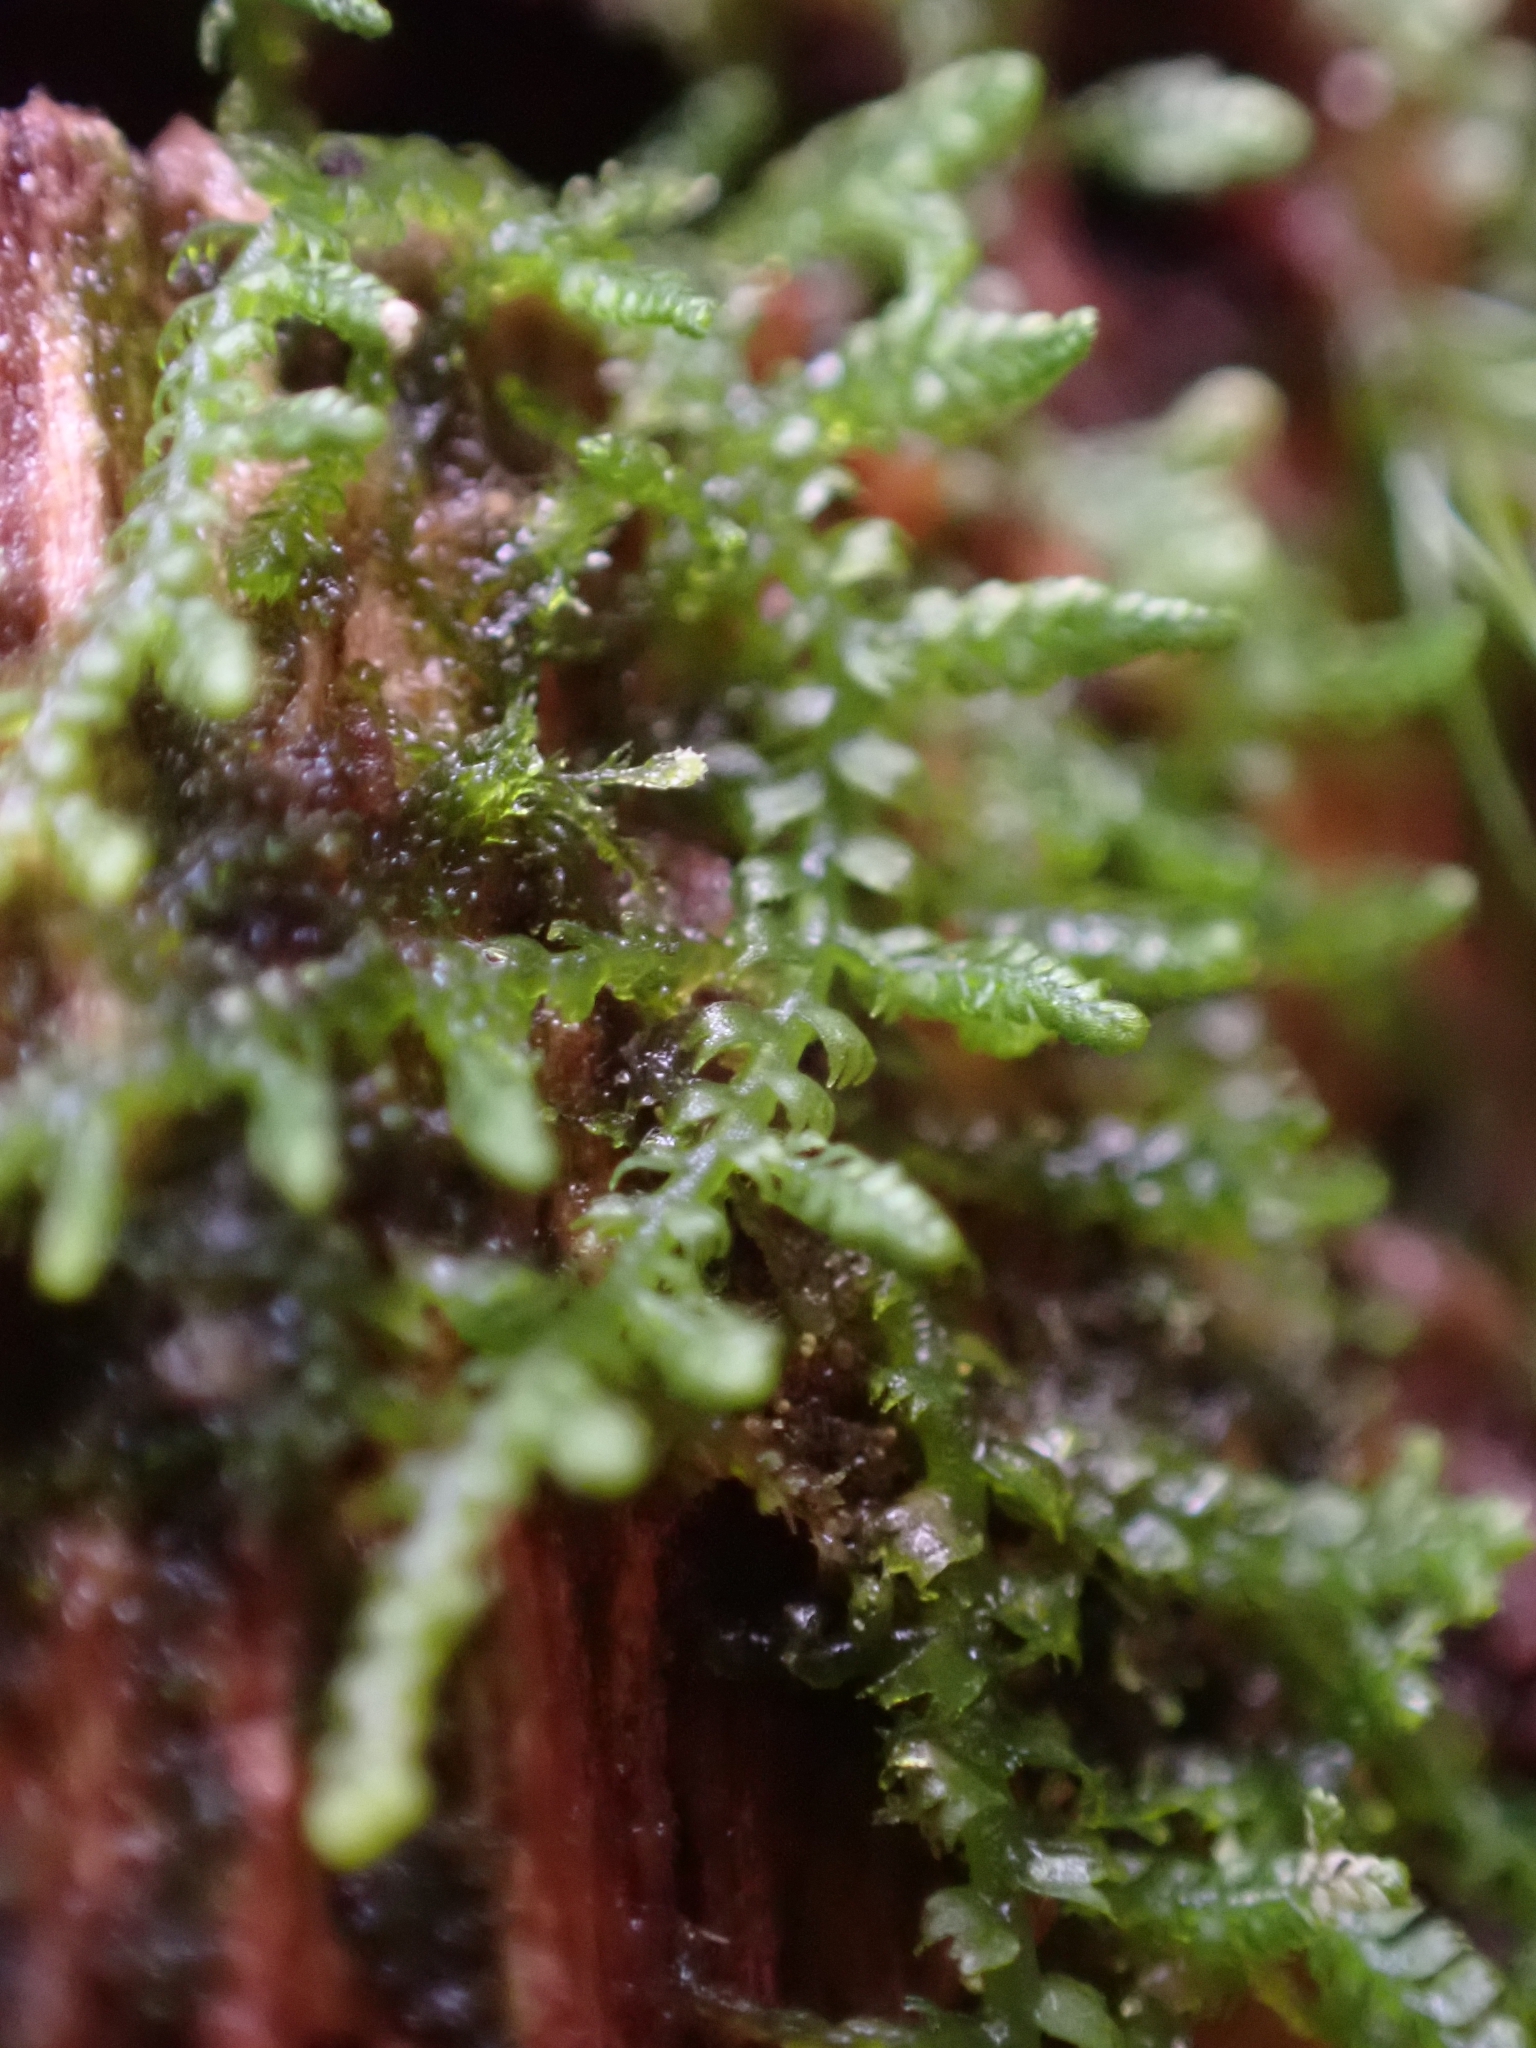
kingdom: Plantae
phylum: Marchantiophyta
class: Jungermanniopsida
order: Jungermanniales
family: Lepidoziaceae
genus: Lepidozia
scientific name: Lepidozia reptans
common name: Creeping fingerwort
